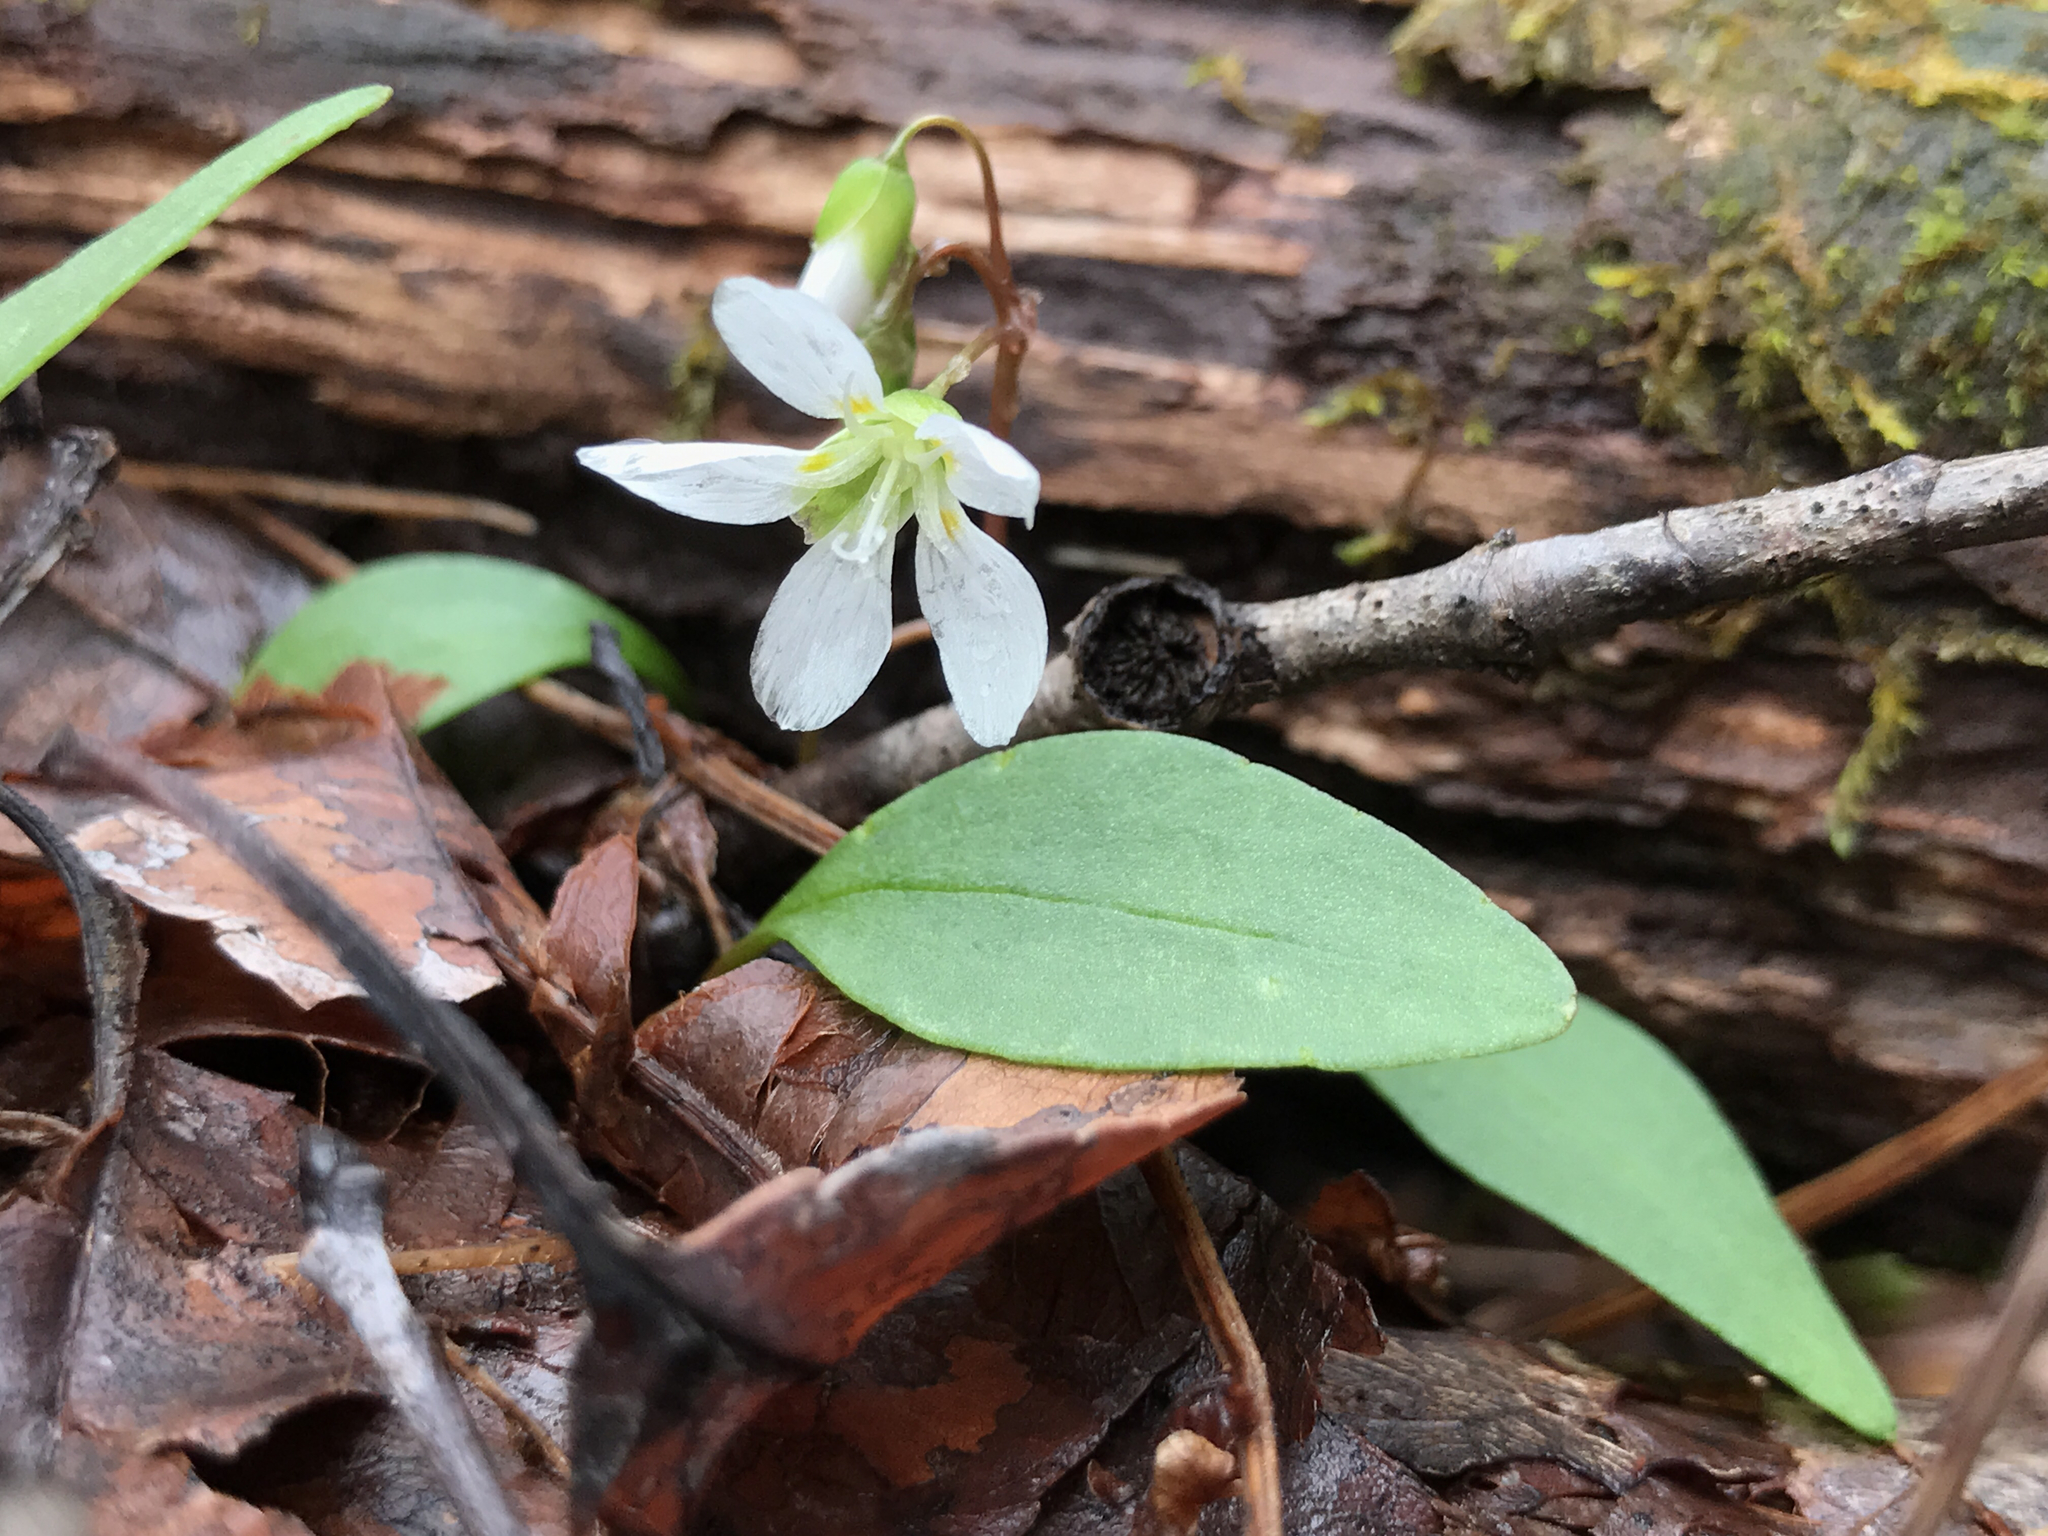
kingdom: Plantae
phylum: Tracheophyta
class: Magnoliopsida
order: Caryophyllales
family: Montiaceae
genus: Claytonia
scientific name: Claytonia caroliniana
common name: Carolina spring beauty
